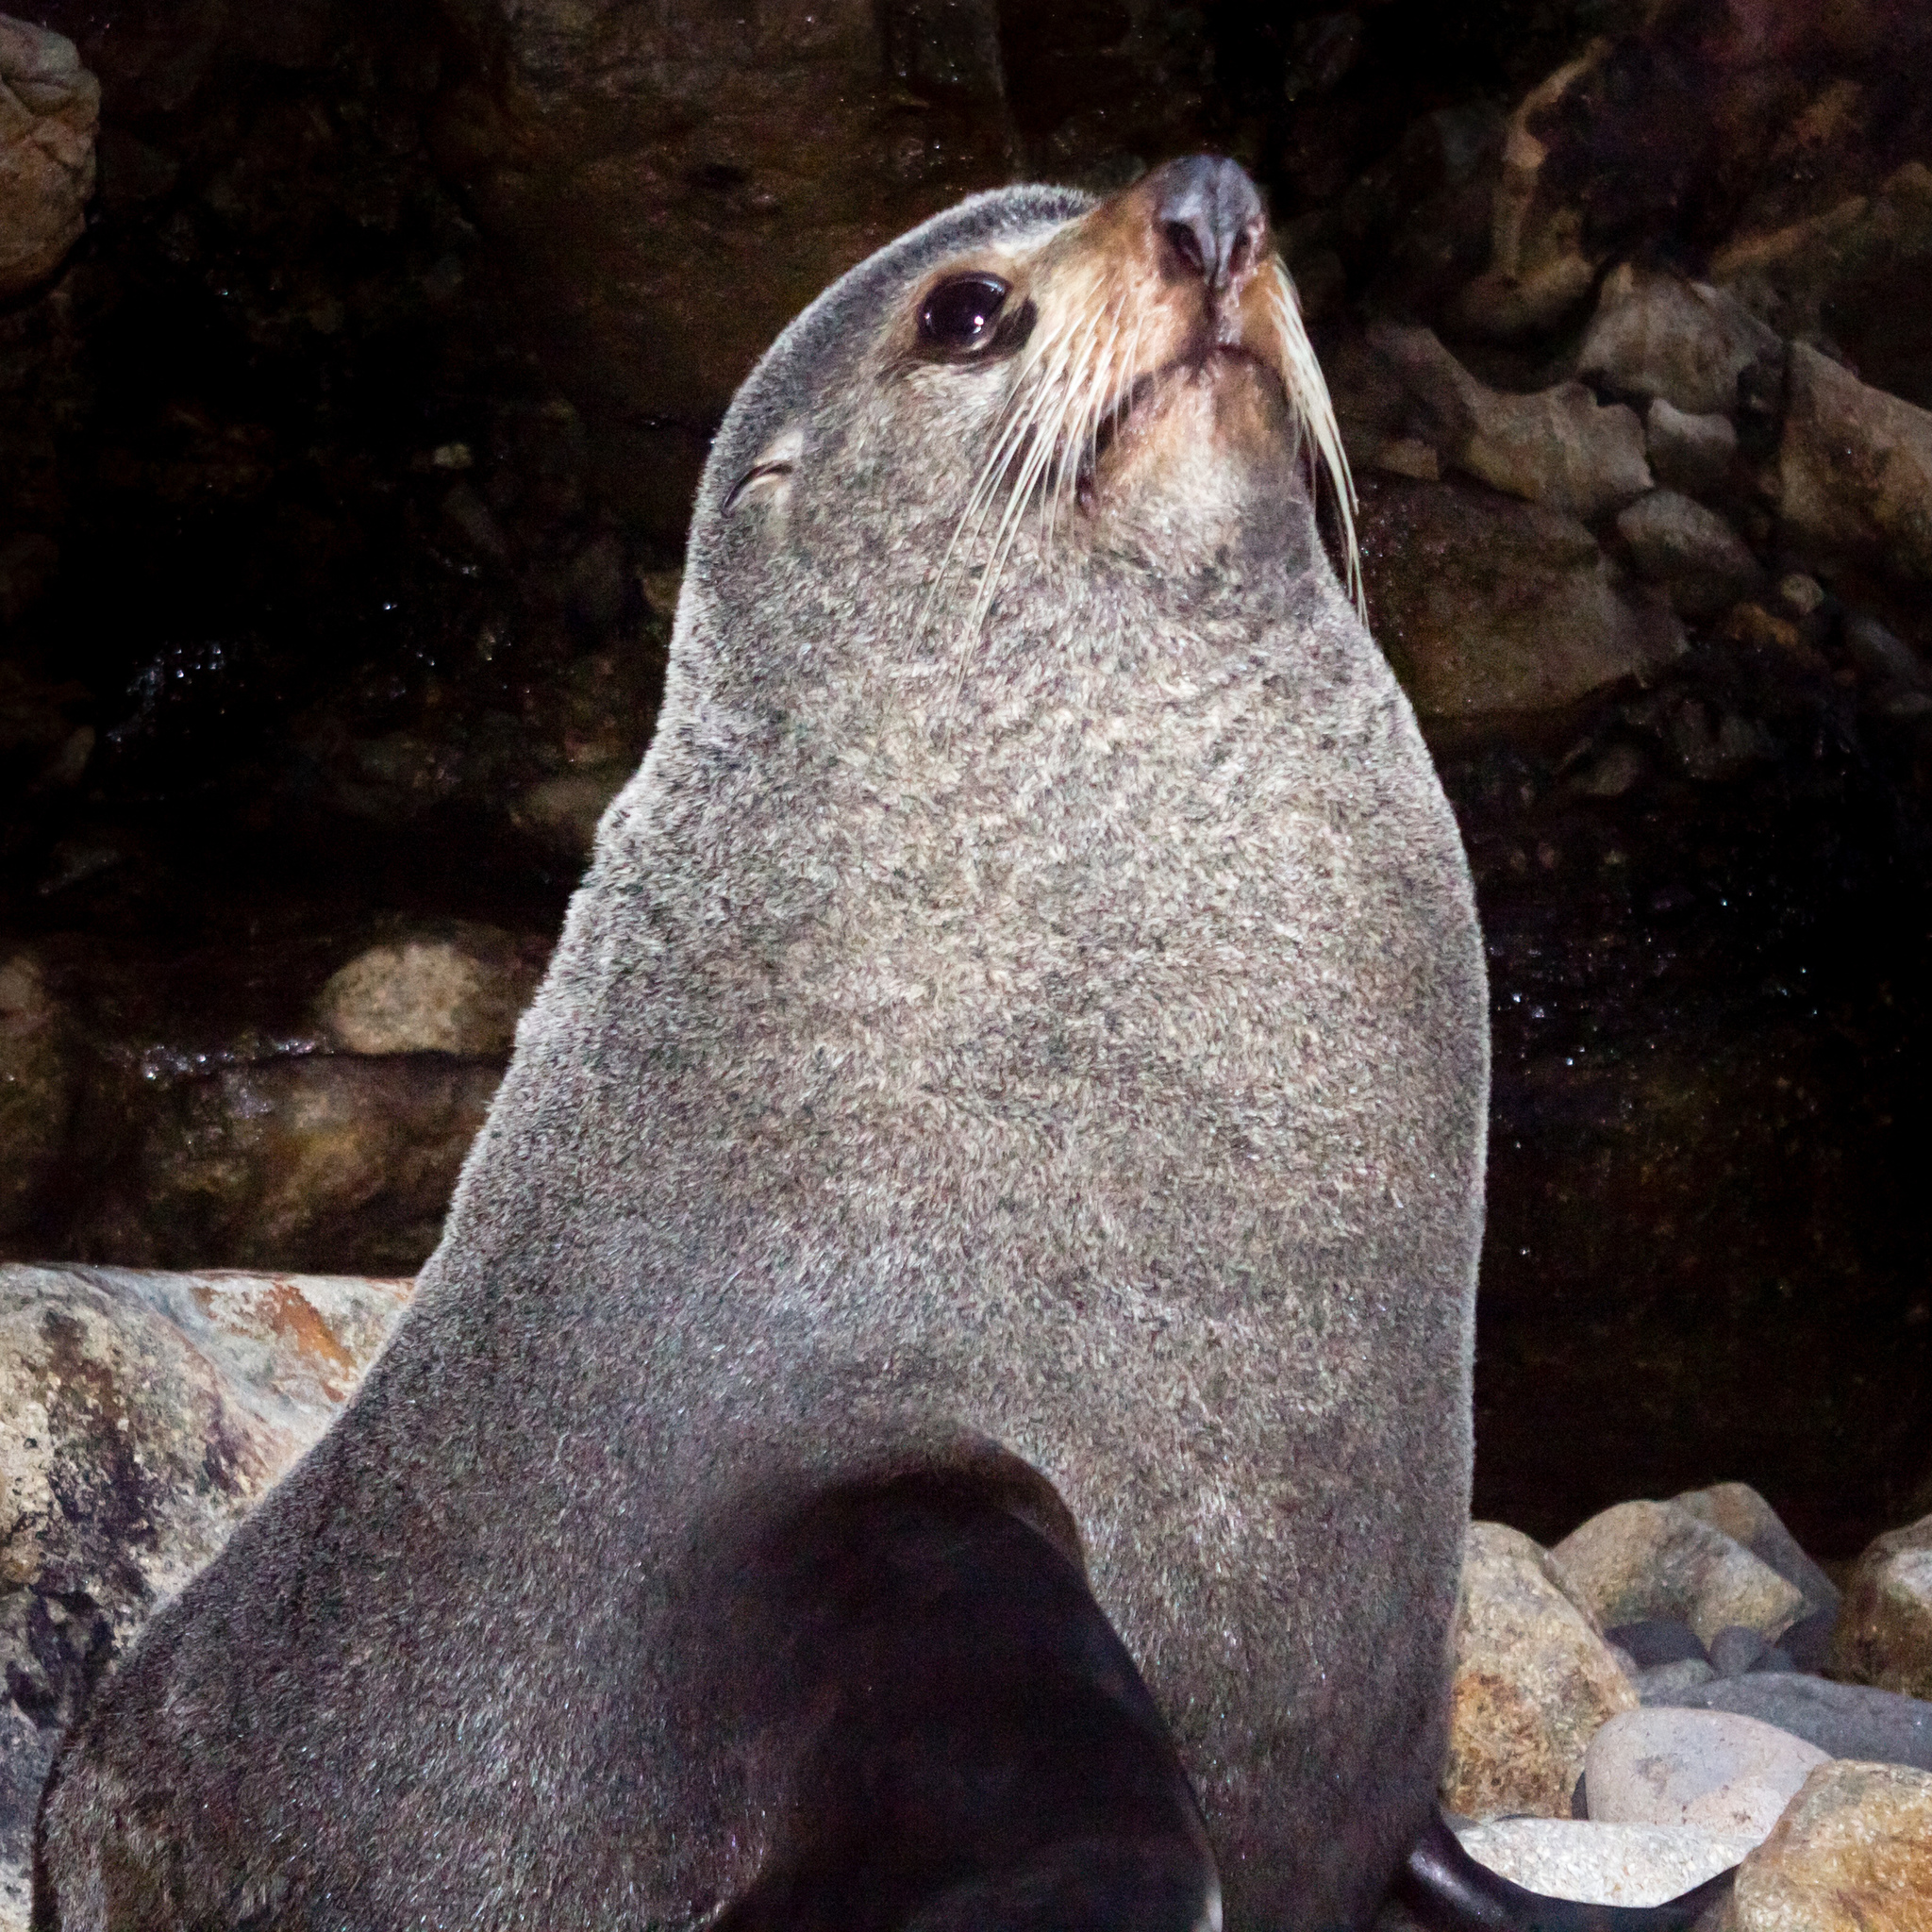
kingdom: Animalia
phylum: Chordata
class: Mammalia
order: Carnivora
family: Otariidae
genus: Arctocephalus
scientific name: Arctocephalus forsteri
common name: New zealand fur seal
